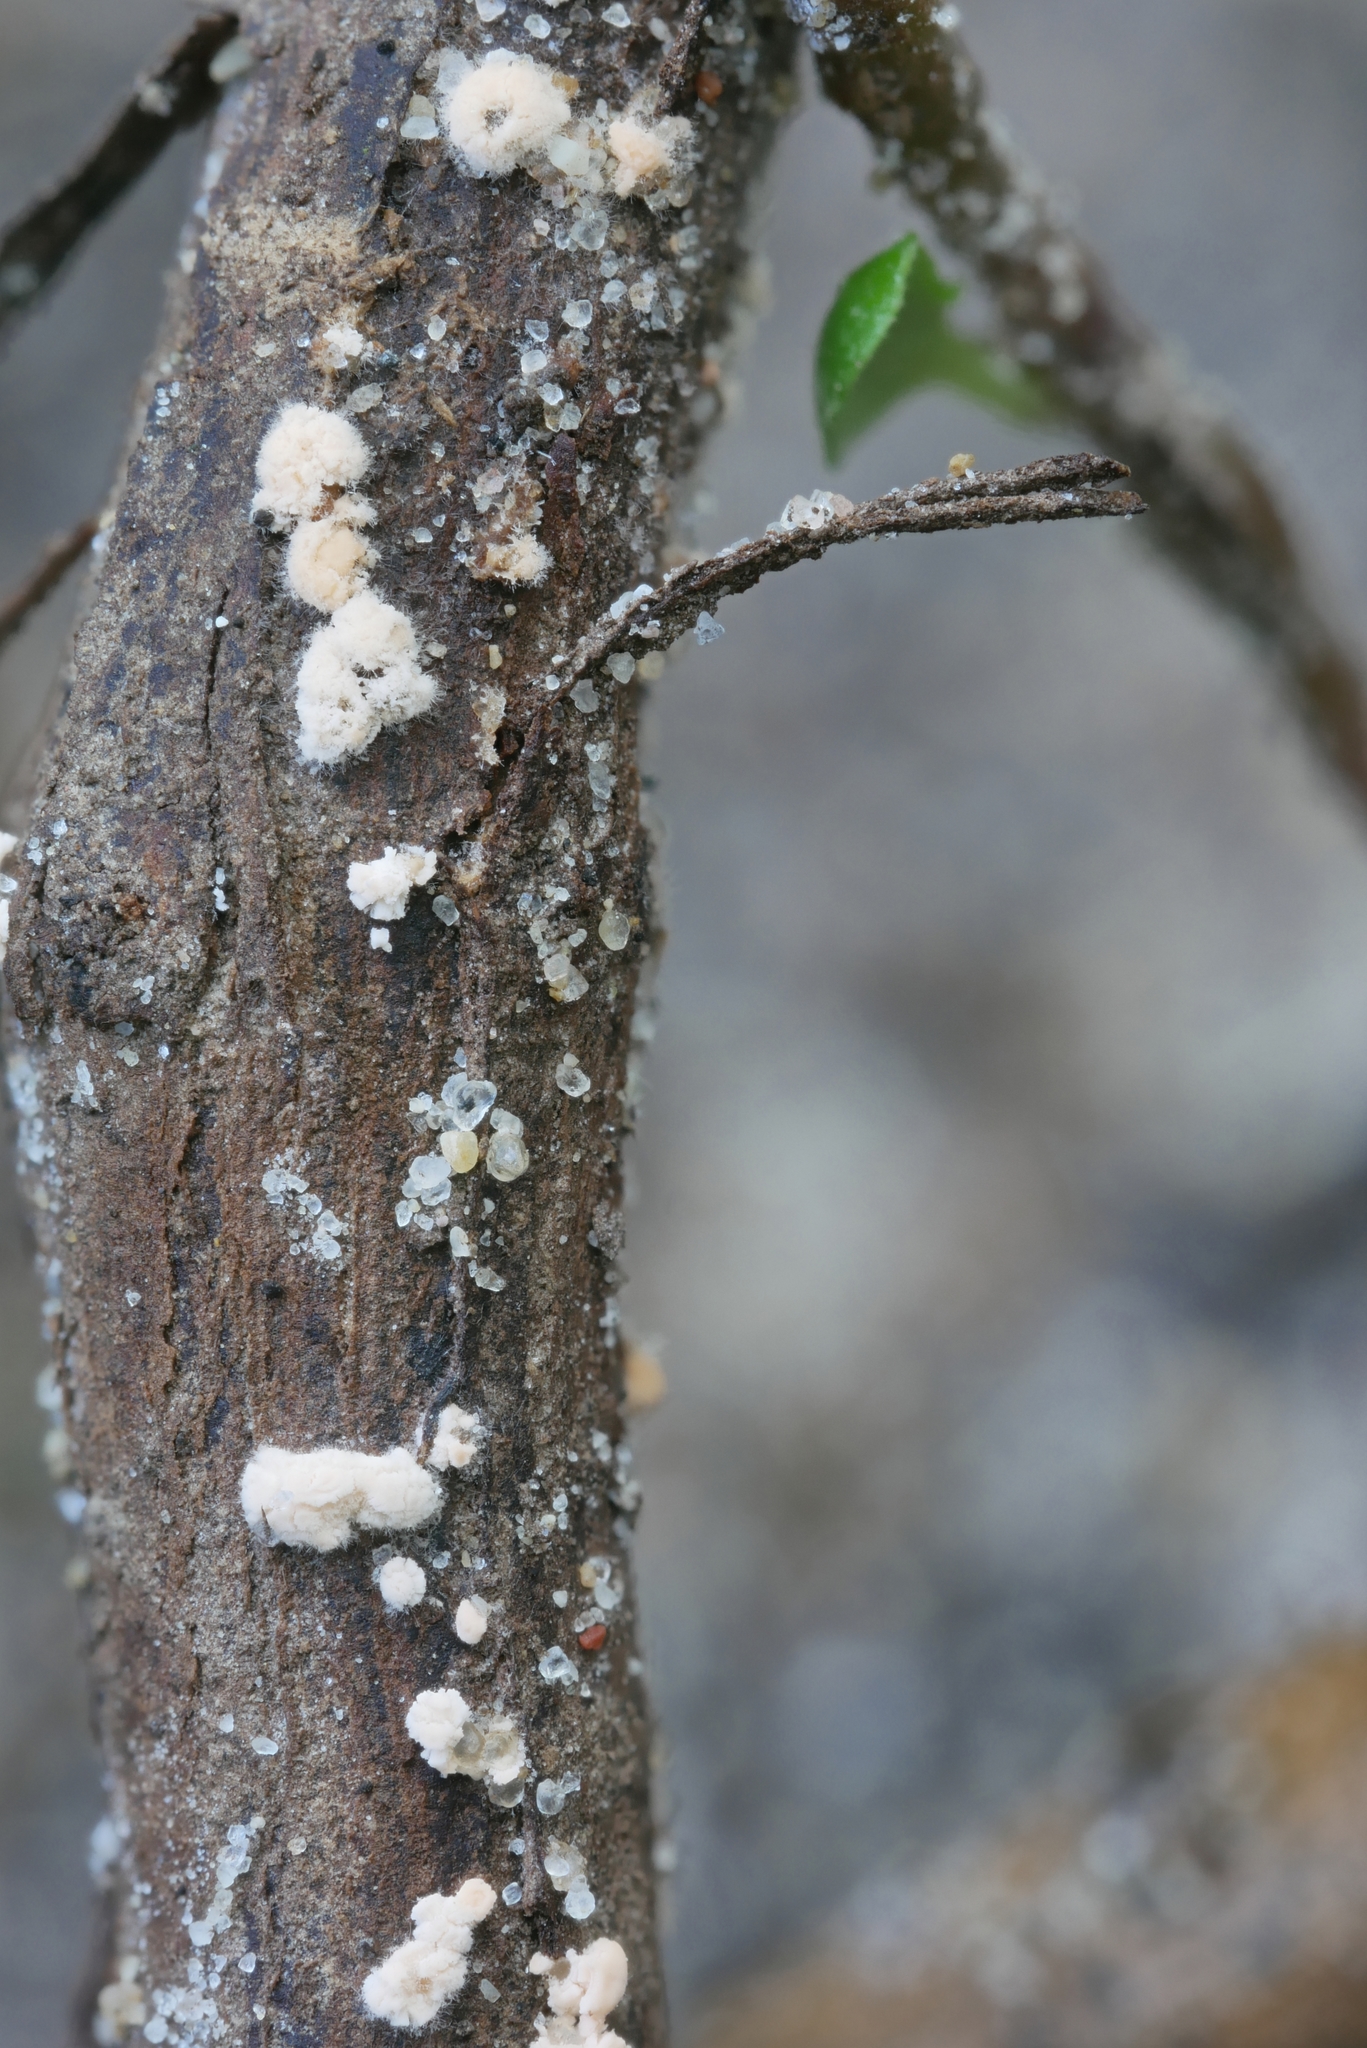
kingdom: Fungi
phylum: Ascomycota
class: Sordariomycetes
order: Hypocreales
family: Bionectriaceae
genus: Clonostachys
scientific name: Clonostachys rosea
